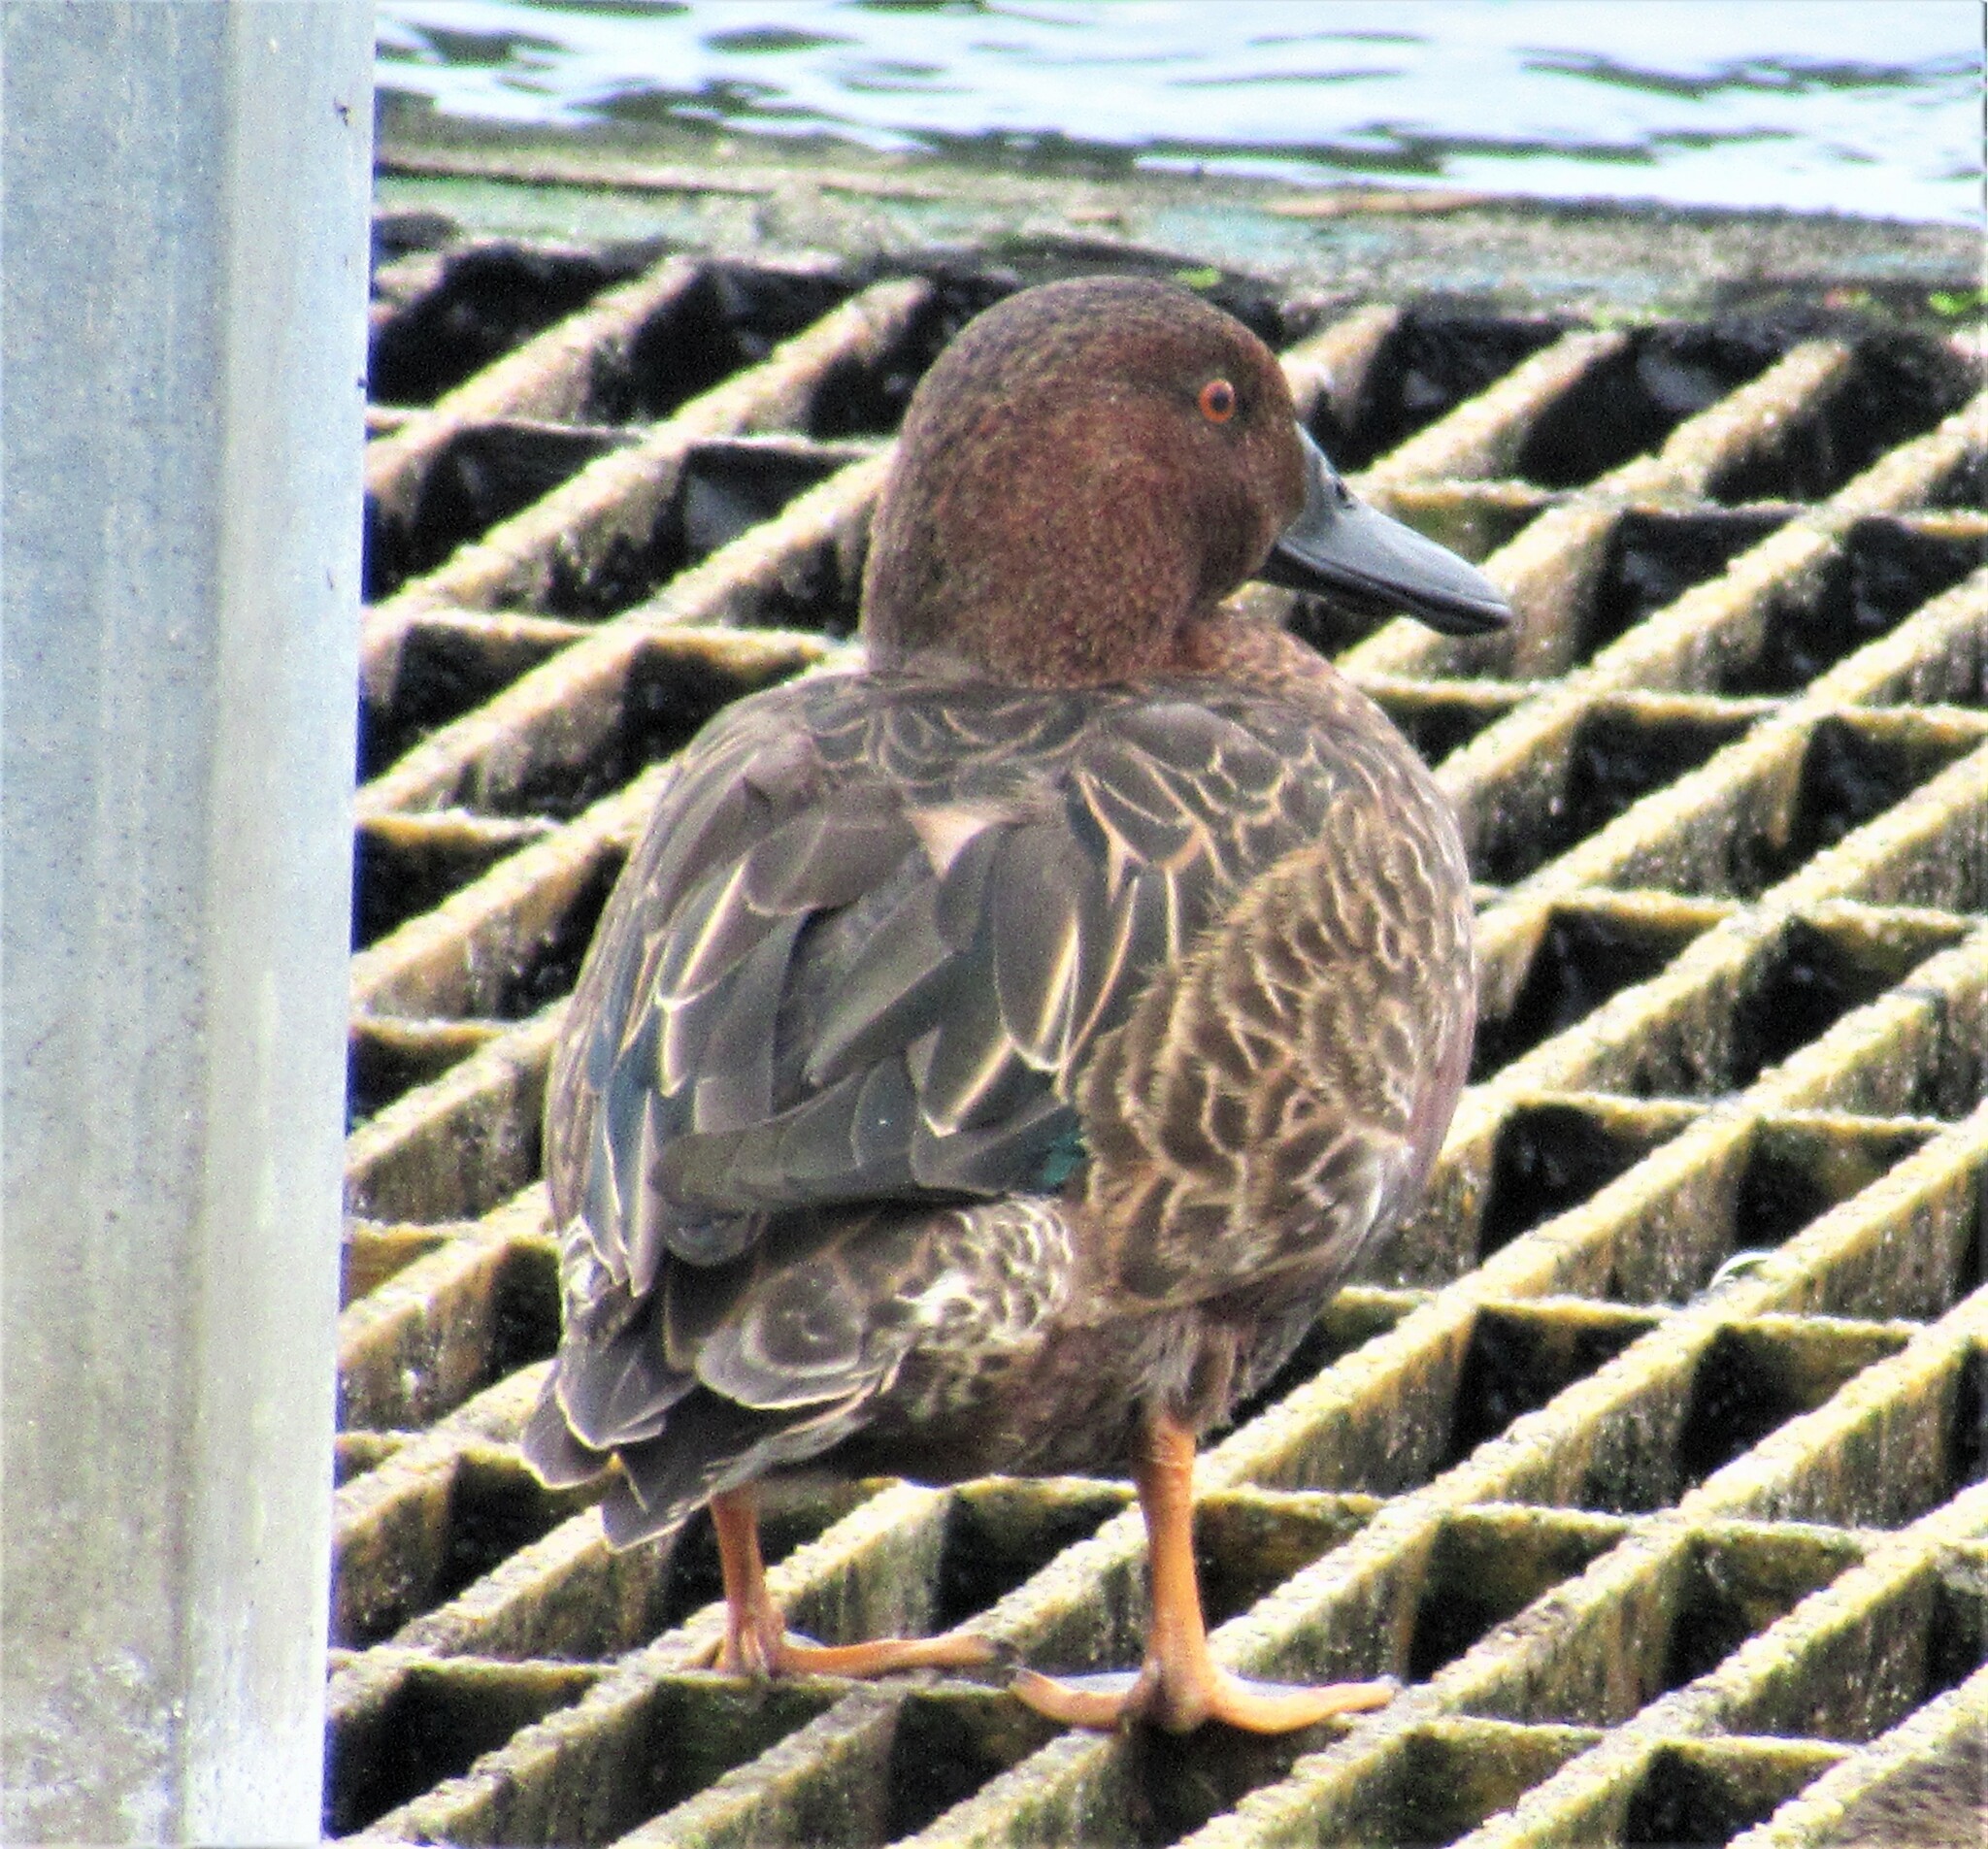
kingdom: Animalia
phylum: Chordata
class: Aves
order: Anseriformes
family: Anatidae
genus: Spatula
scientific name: Spatula cyanoptera
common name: Cinnamon teal
